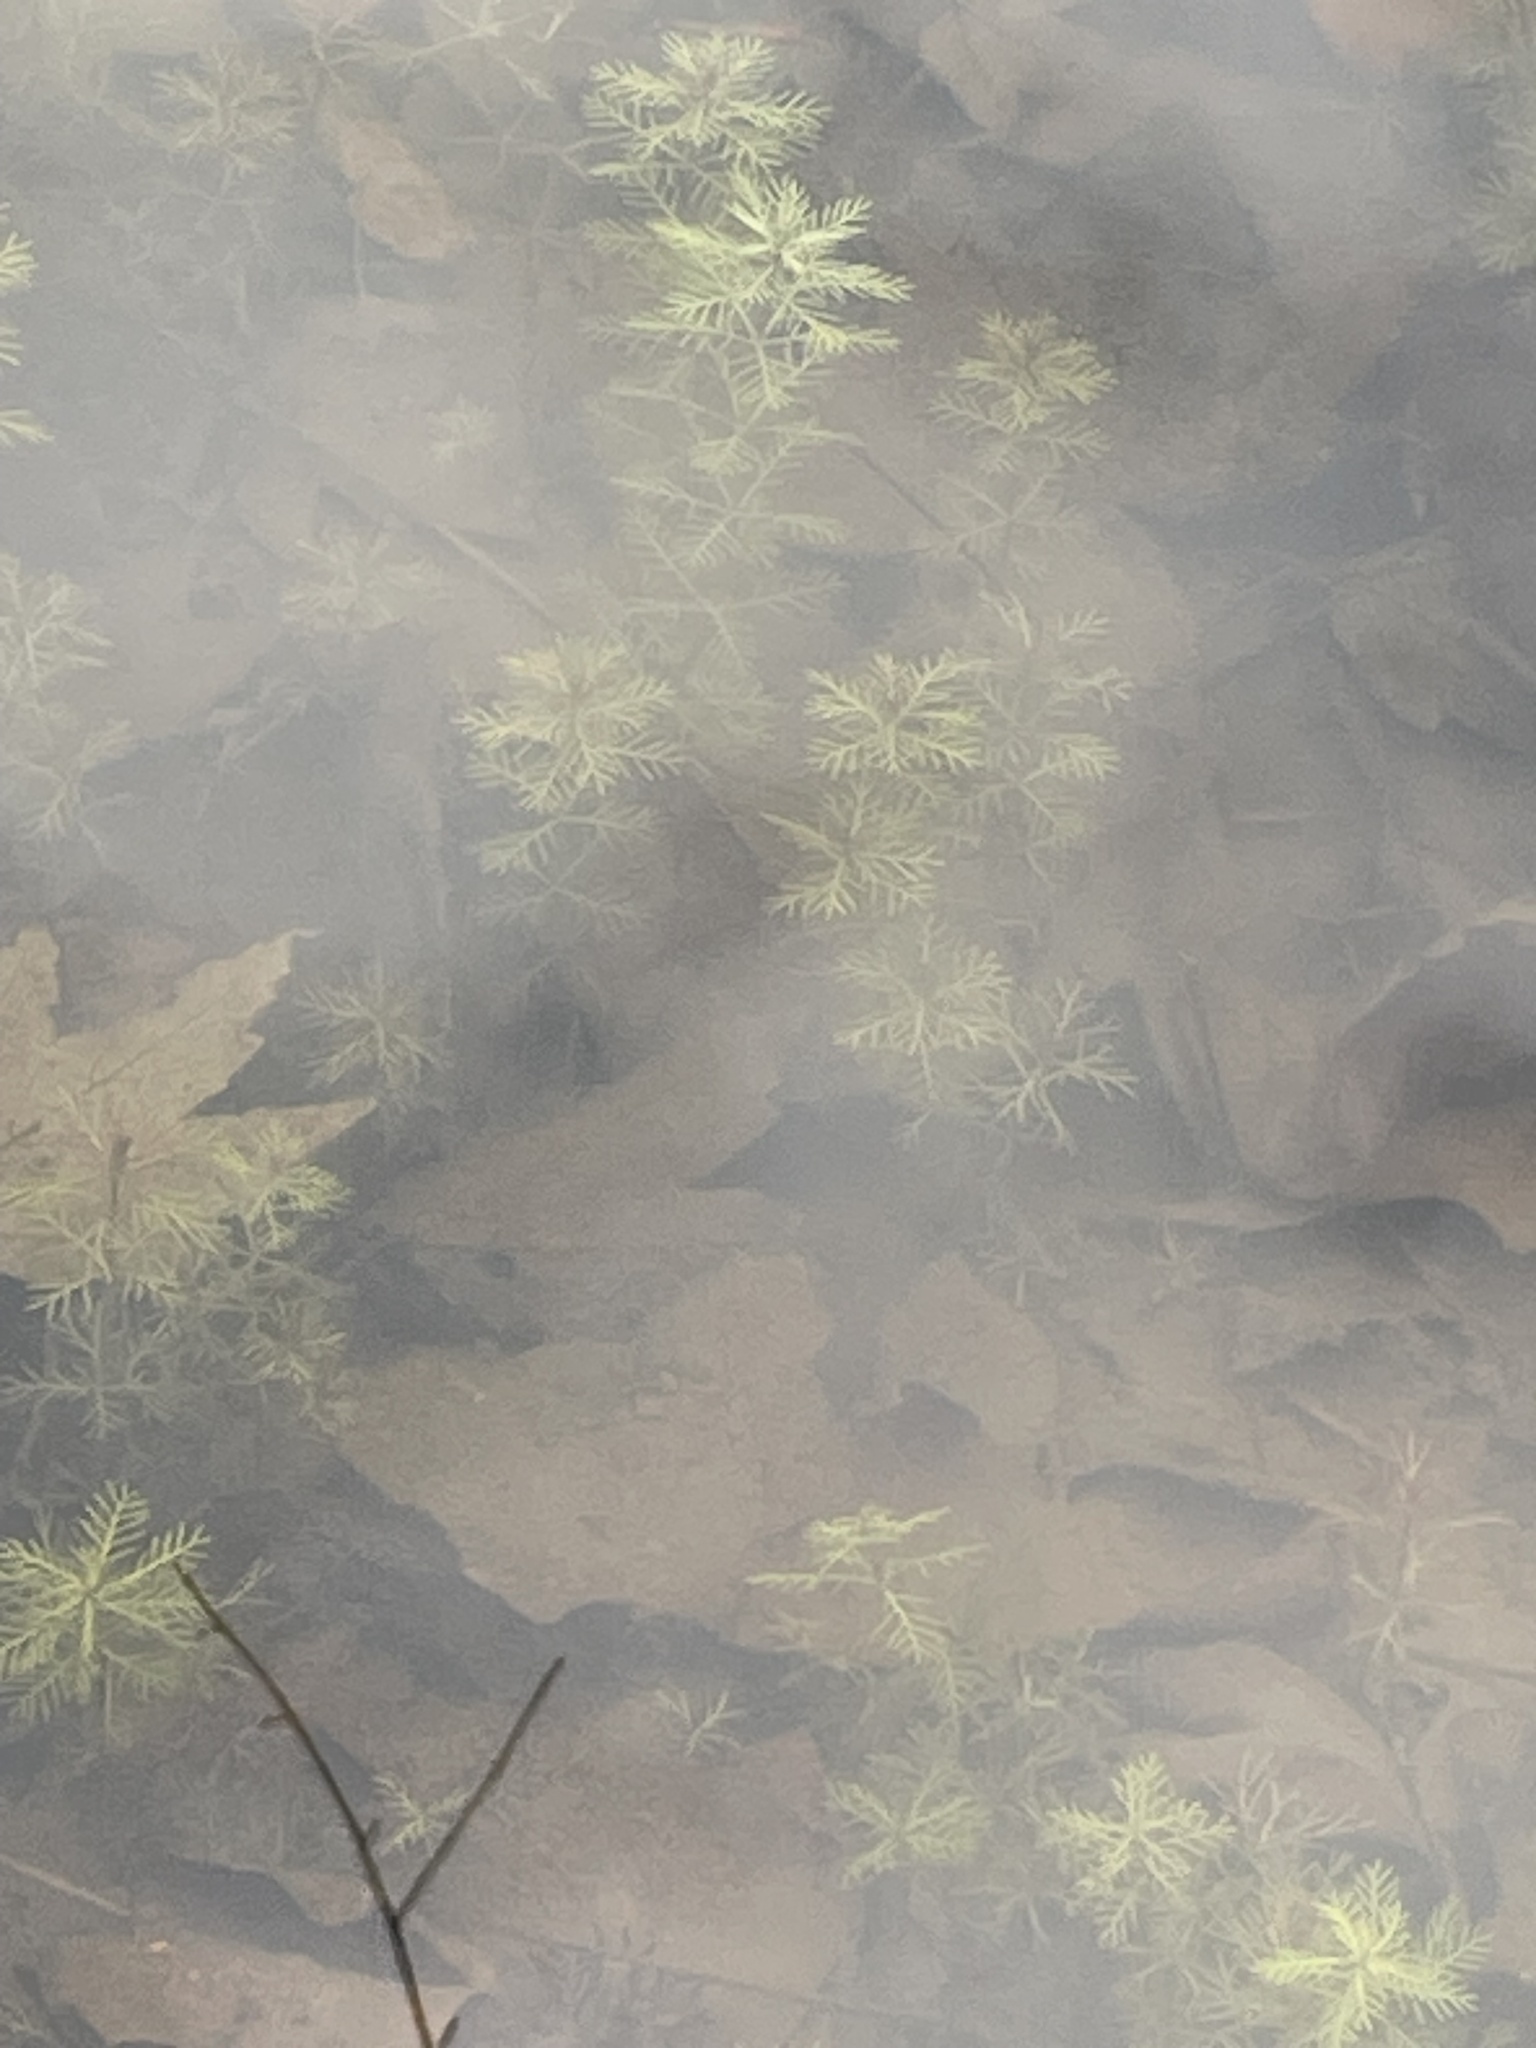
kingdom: Plantae
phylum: Tracheophyta
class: Magnoliopsida
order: Saxifragales
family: Haloragaceae
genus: Myriophyllum
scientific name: Myriophyllum aquaticum
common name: Parrot's feather
